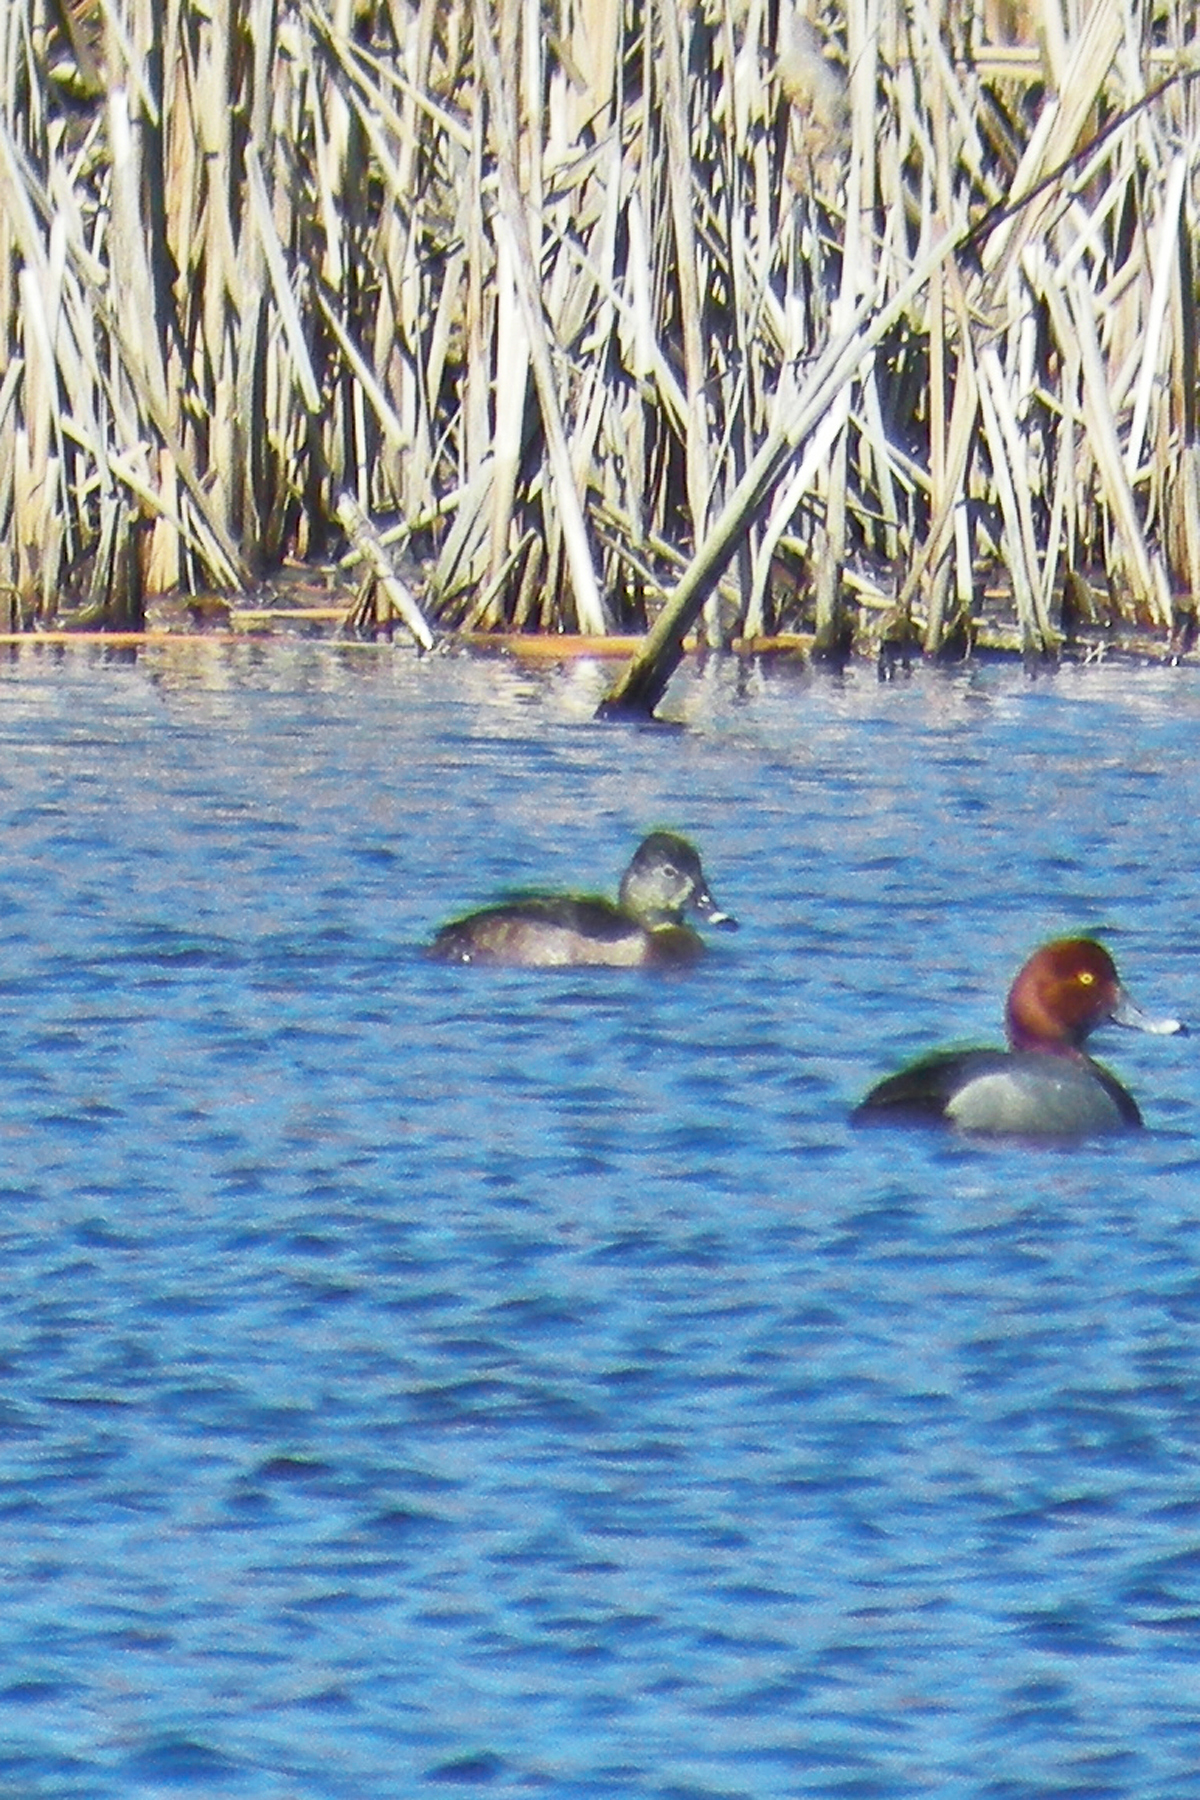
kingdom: Animalia
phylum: Chordata
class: Aves
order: Anseriformes
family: Anatidae
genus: Aythya
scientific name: Aythya collaris
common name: Ring-necked duck
